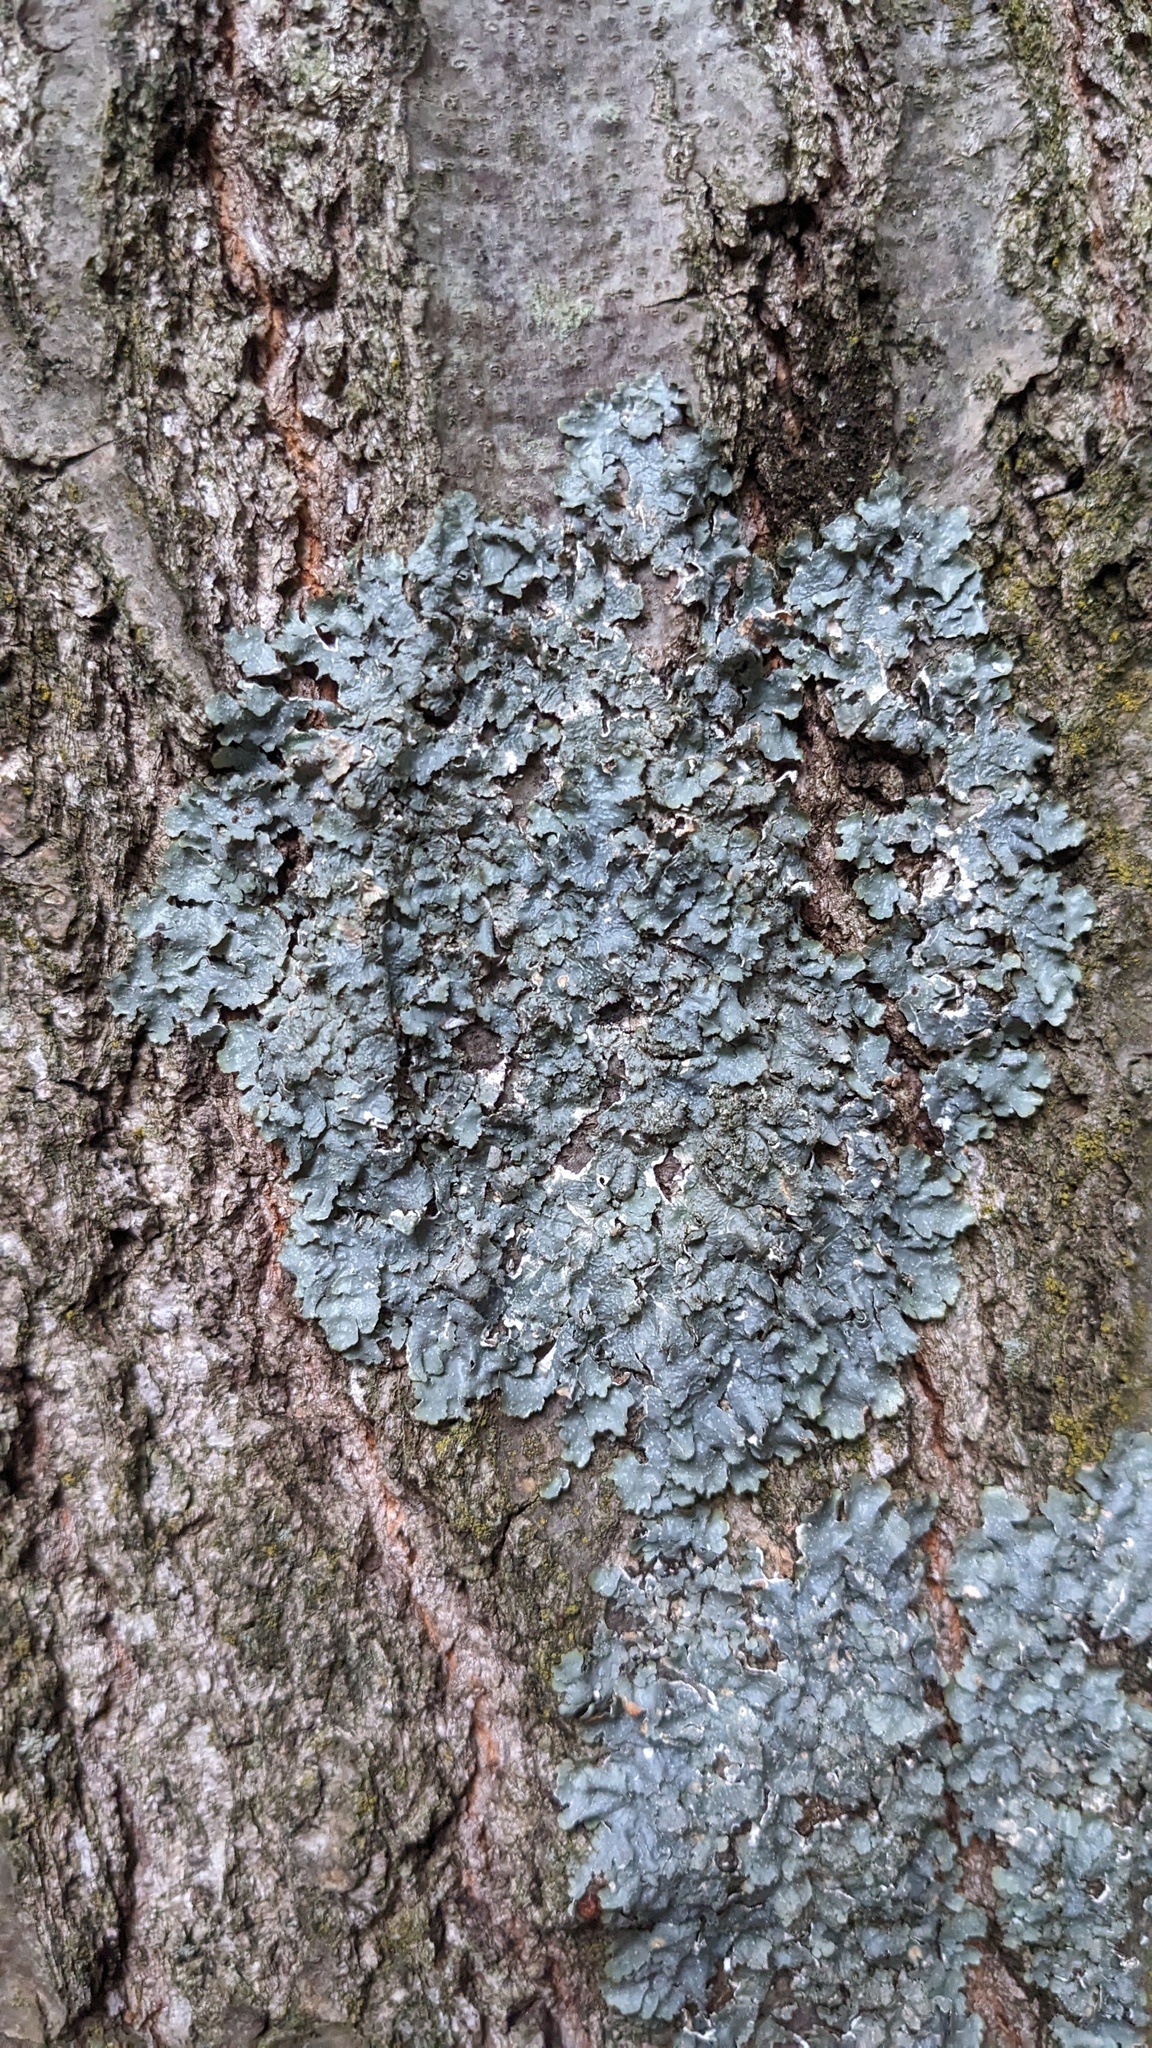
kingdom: Fungi
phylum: Ascomycota
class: Lecanoromycetes
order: Lecanorales
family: Parmeliaceae
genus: Punctelia
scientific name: Punctelia rudecta
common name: Rough speckled shield lichen
